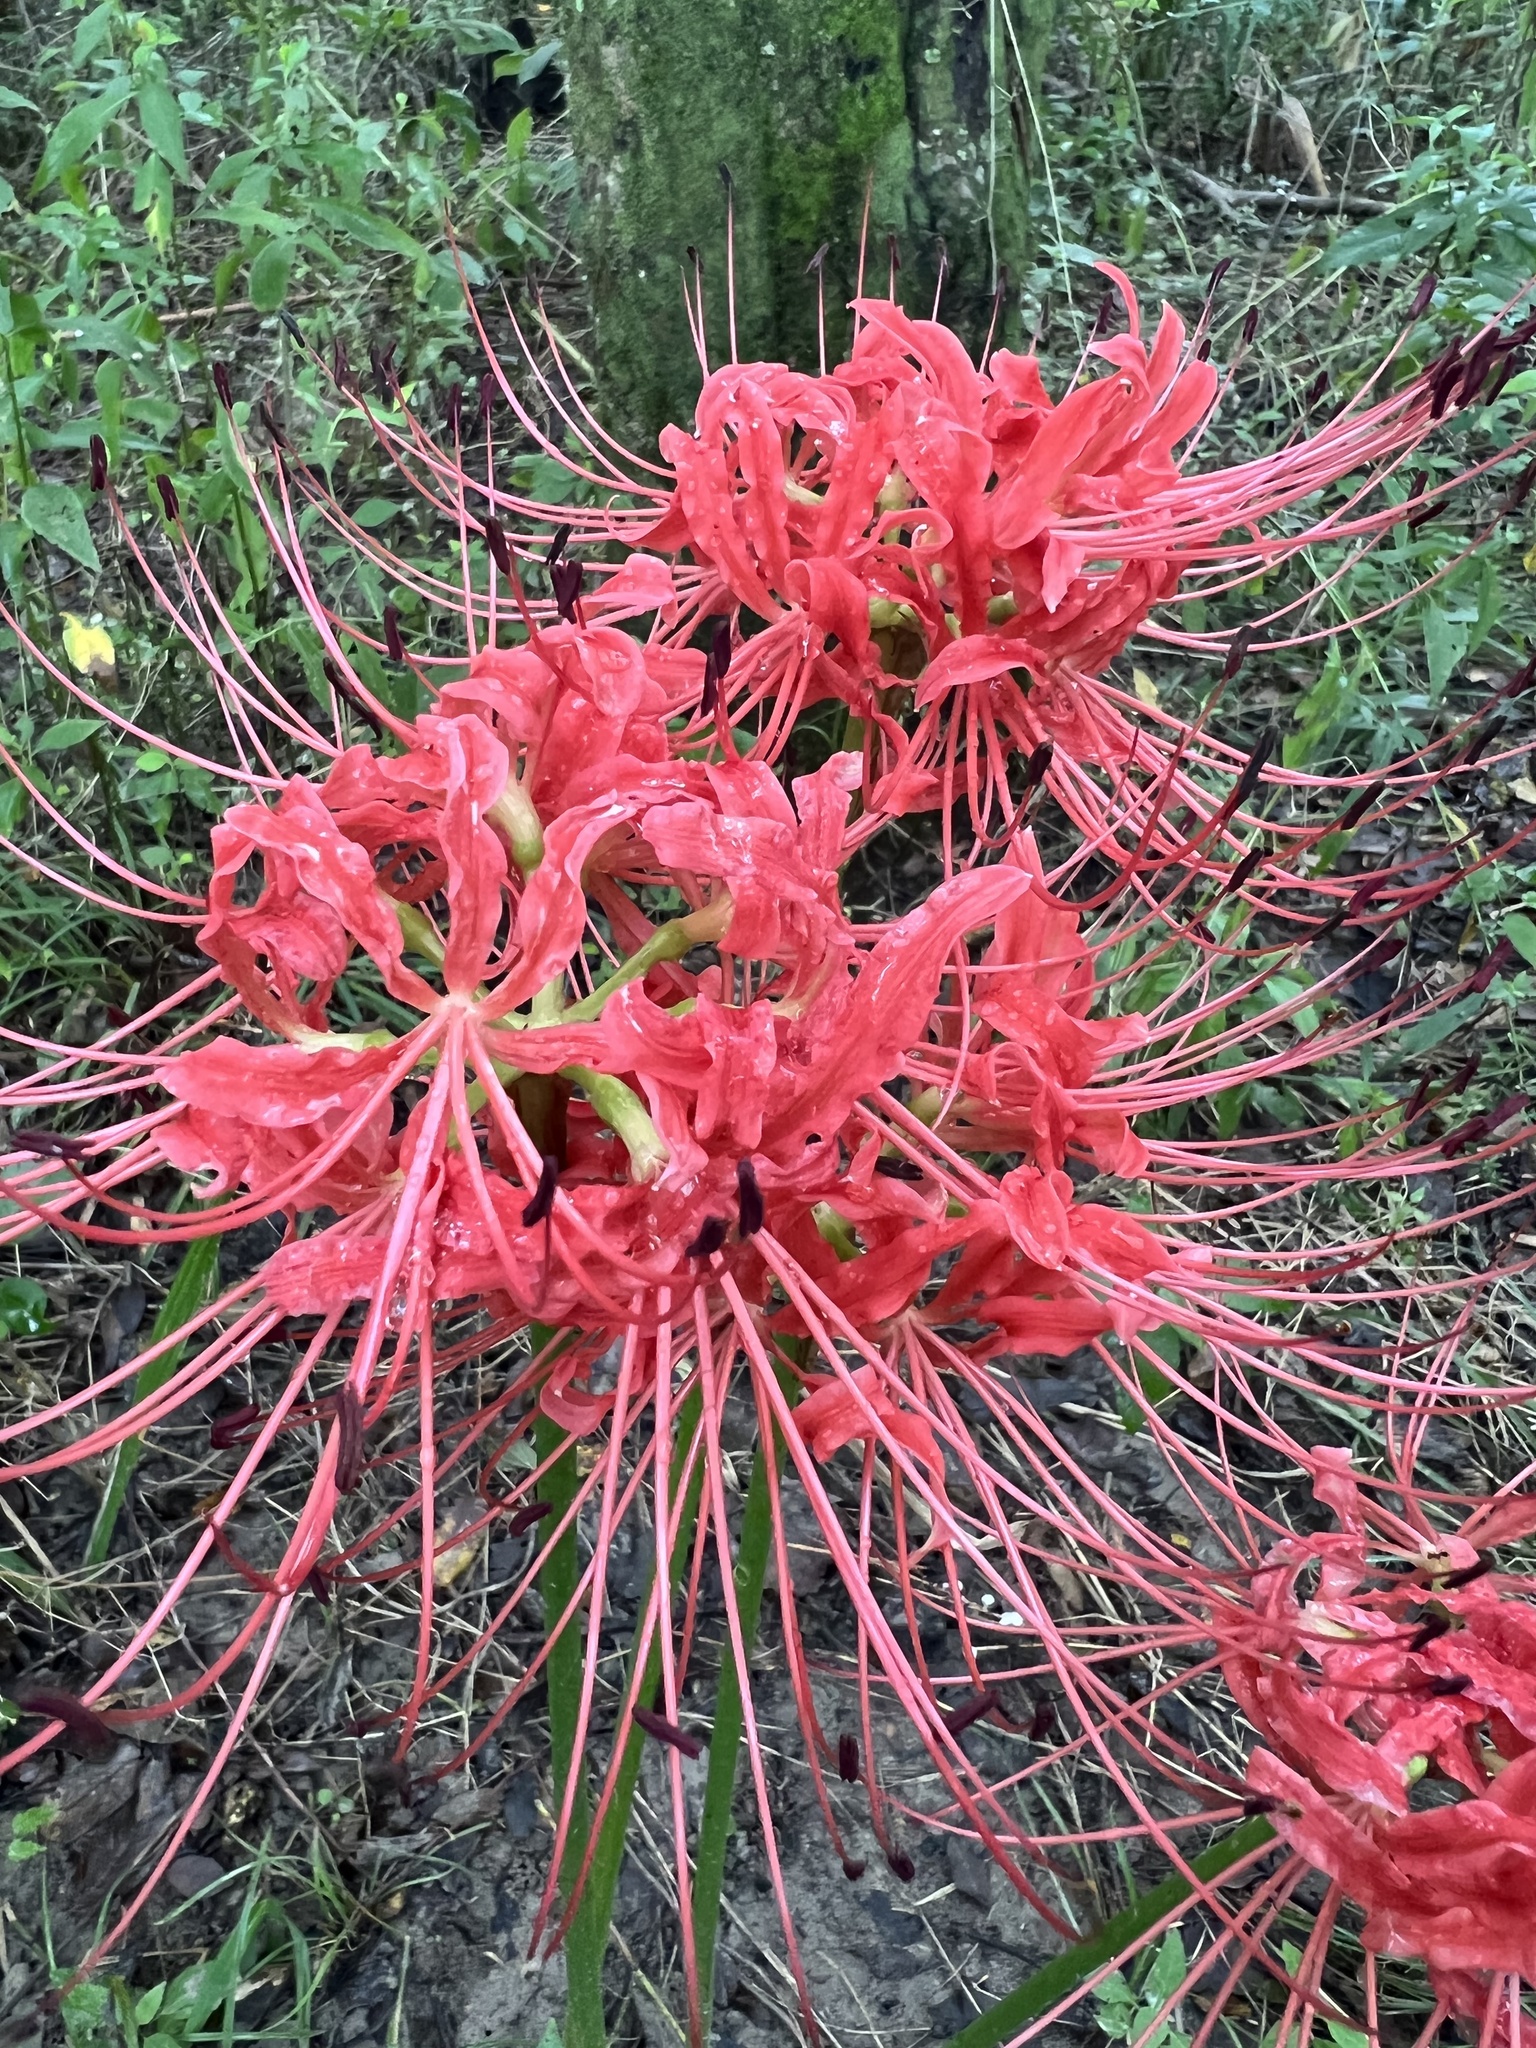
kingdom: Plantae
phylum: Tracheophyta
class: Liliopsida
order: Asparagales
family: Amaryllidaceae
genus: Lycoris
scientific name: Lycoris radiata
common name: Red spider lily
